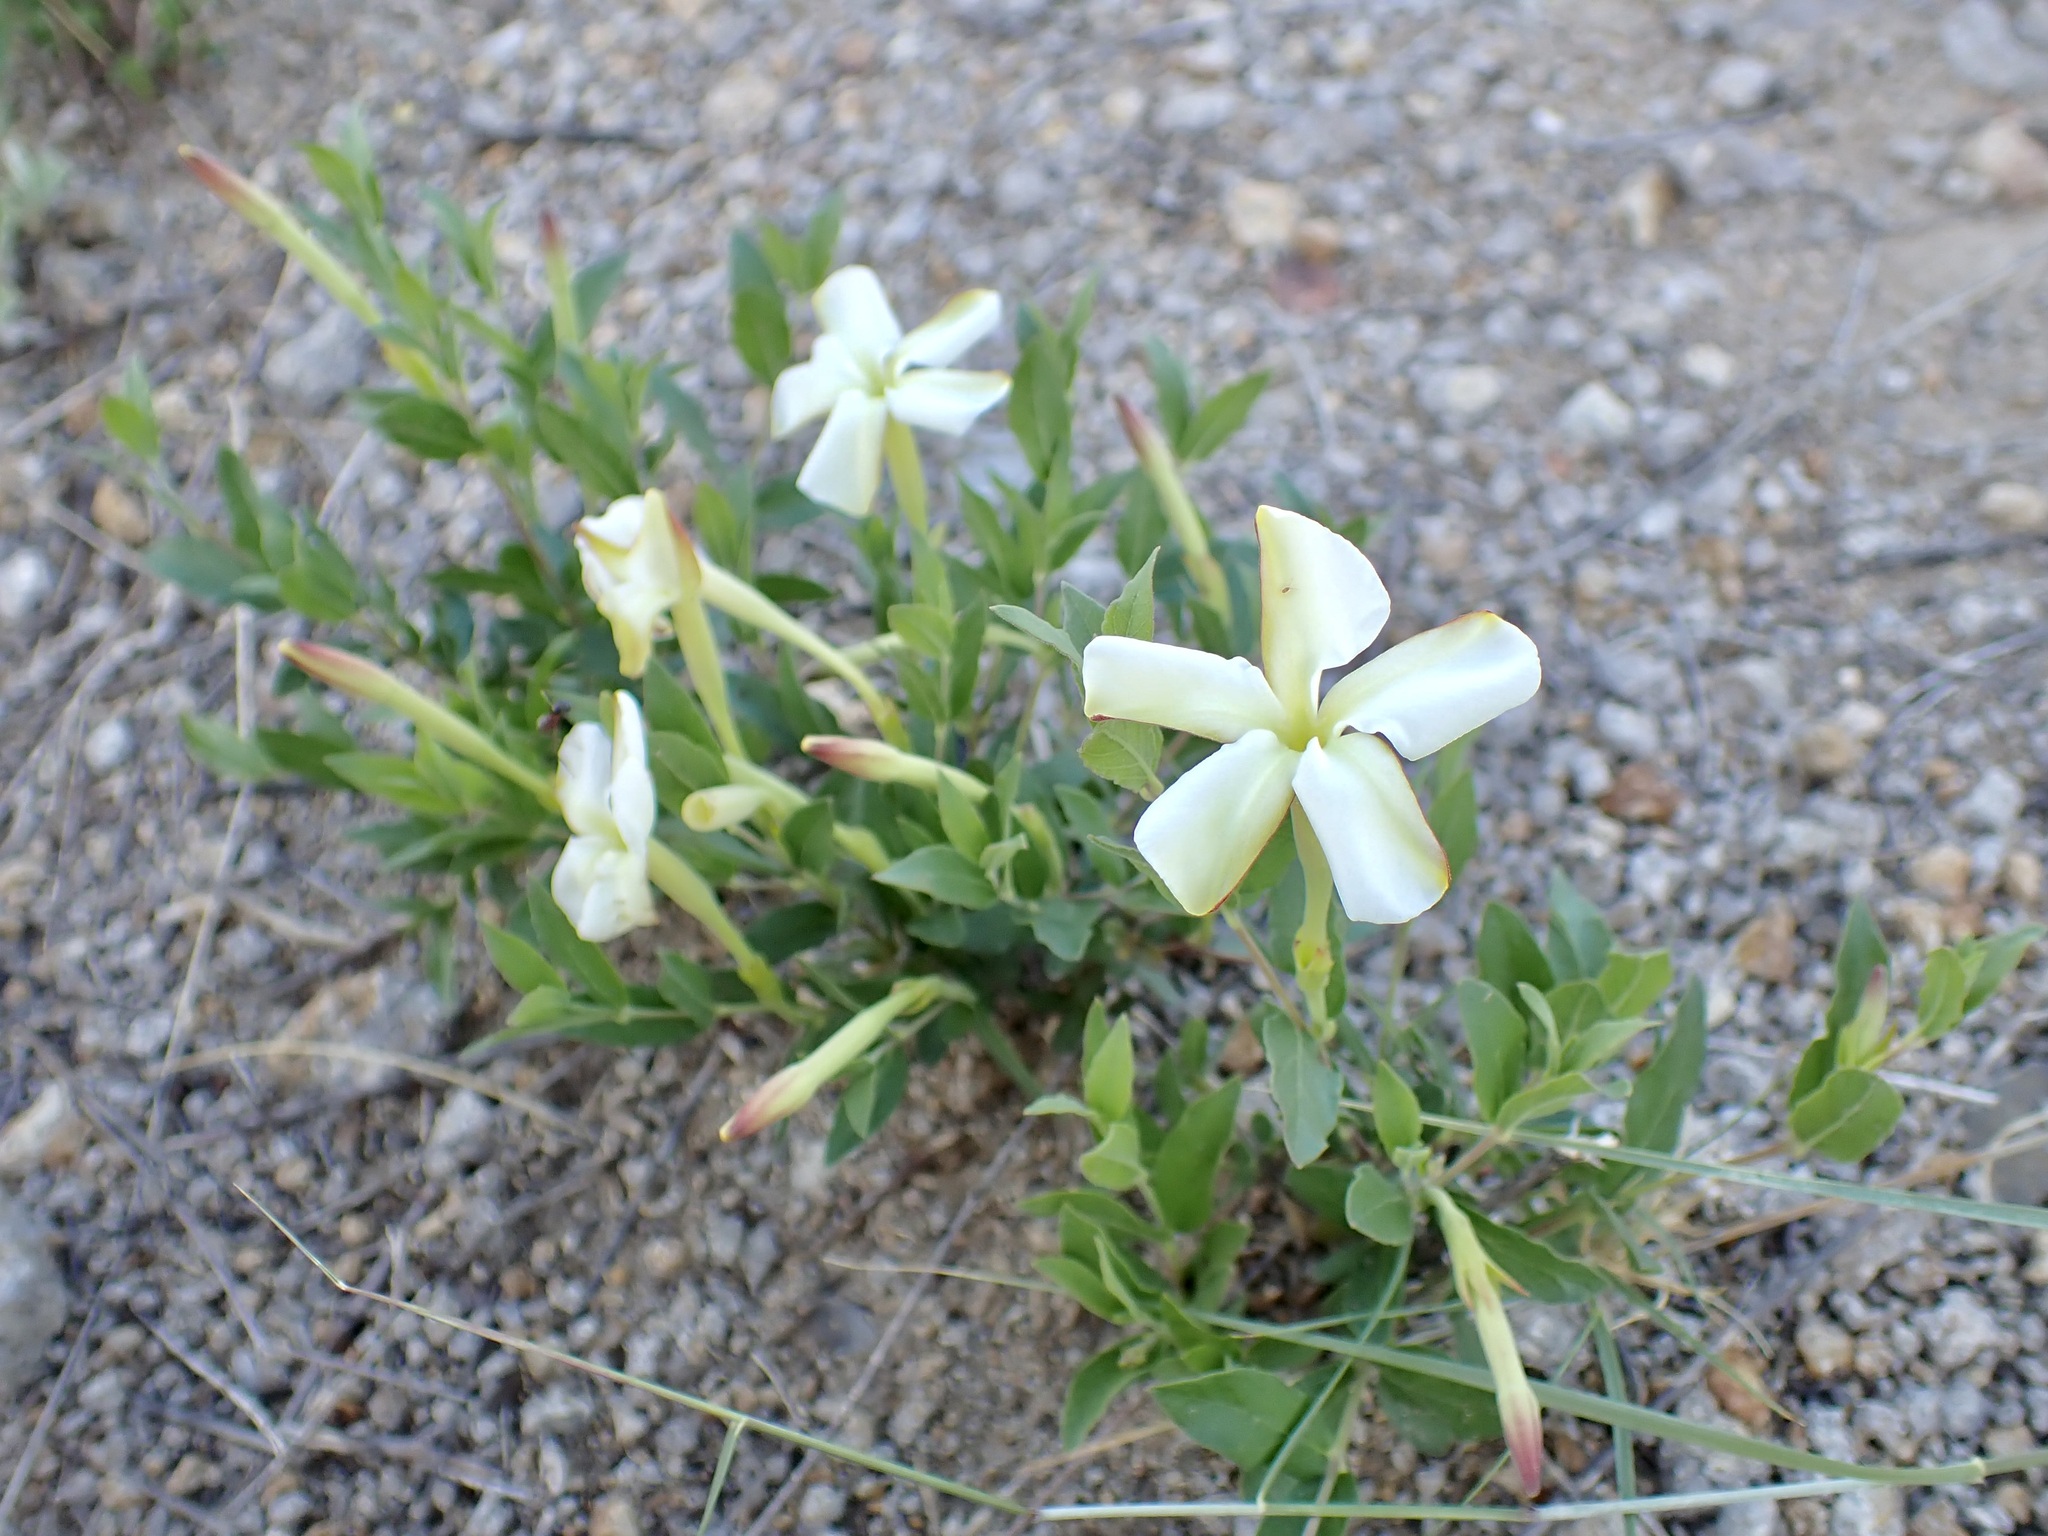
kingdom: Plantae
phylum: Tracheophyta
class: Magnoliopsida
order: Gentianales
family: Apocynaceae
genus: Mandevilla
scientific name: Mandevilla brachysiphon
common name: Huachuca mountain rocktrumpet
